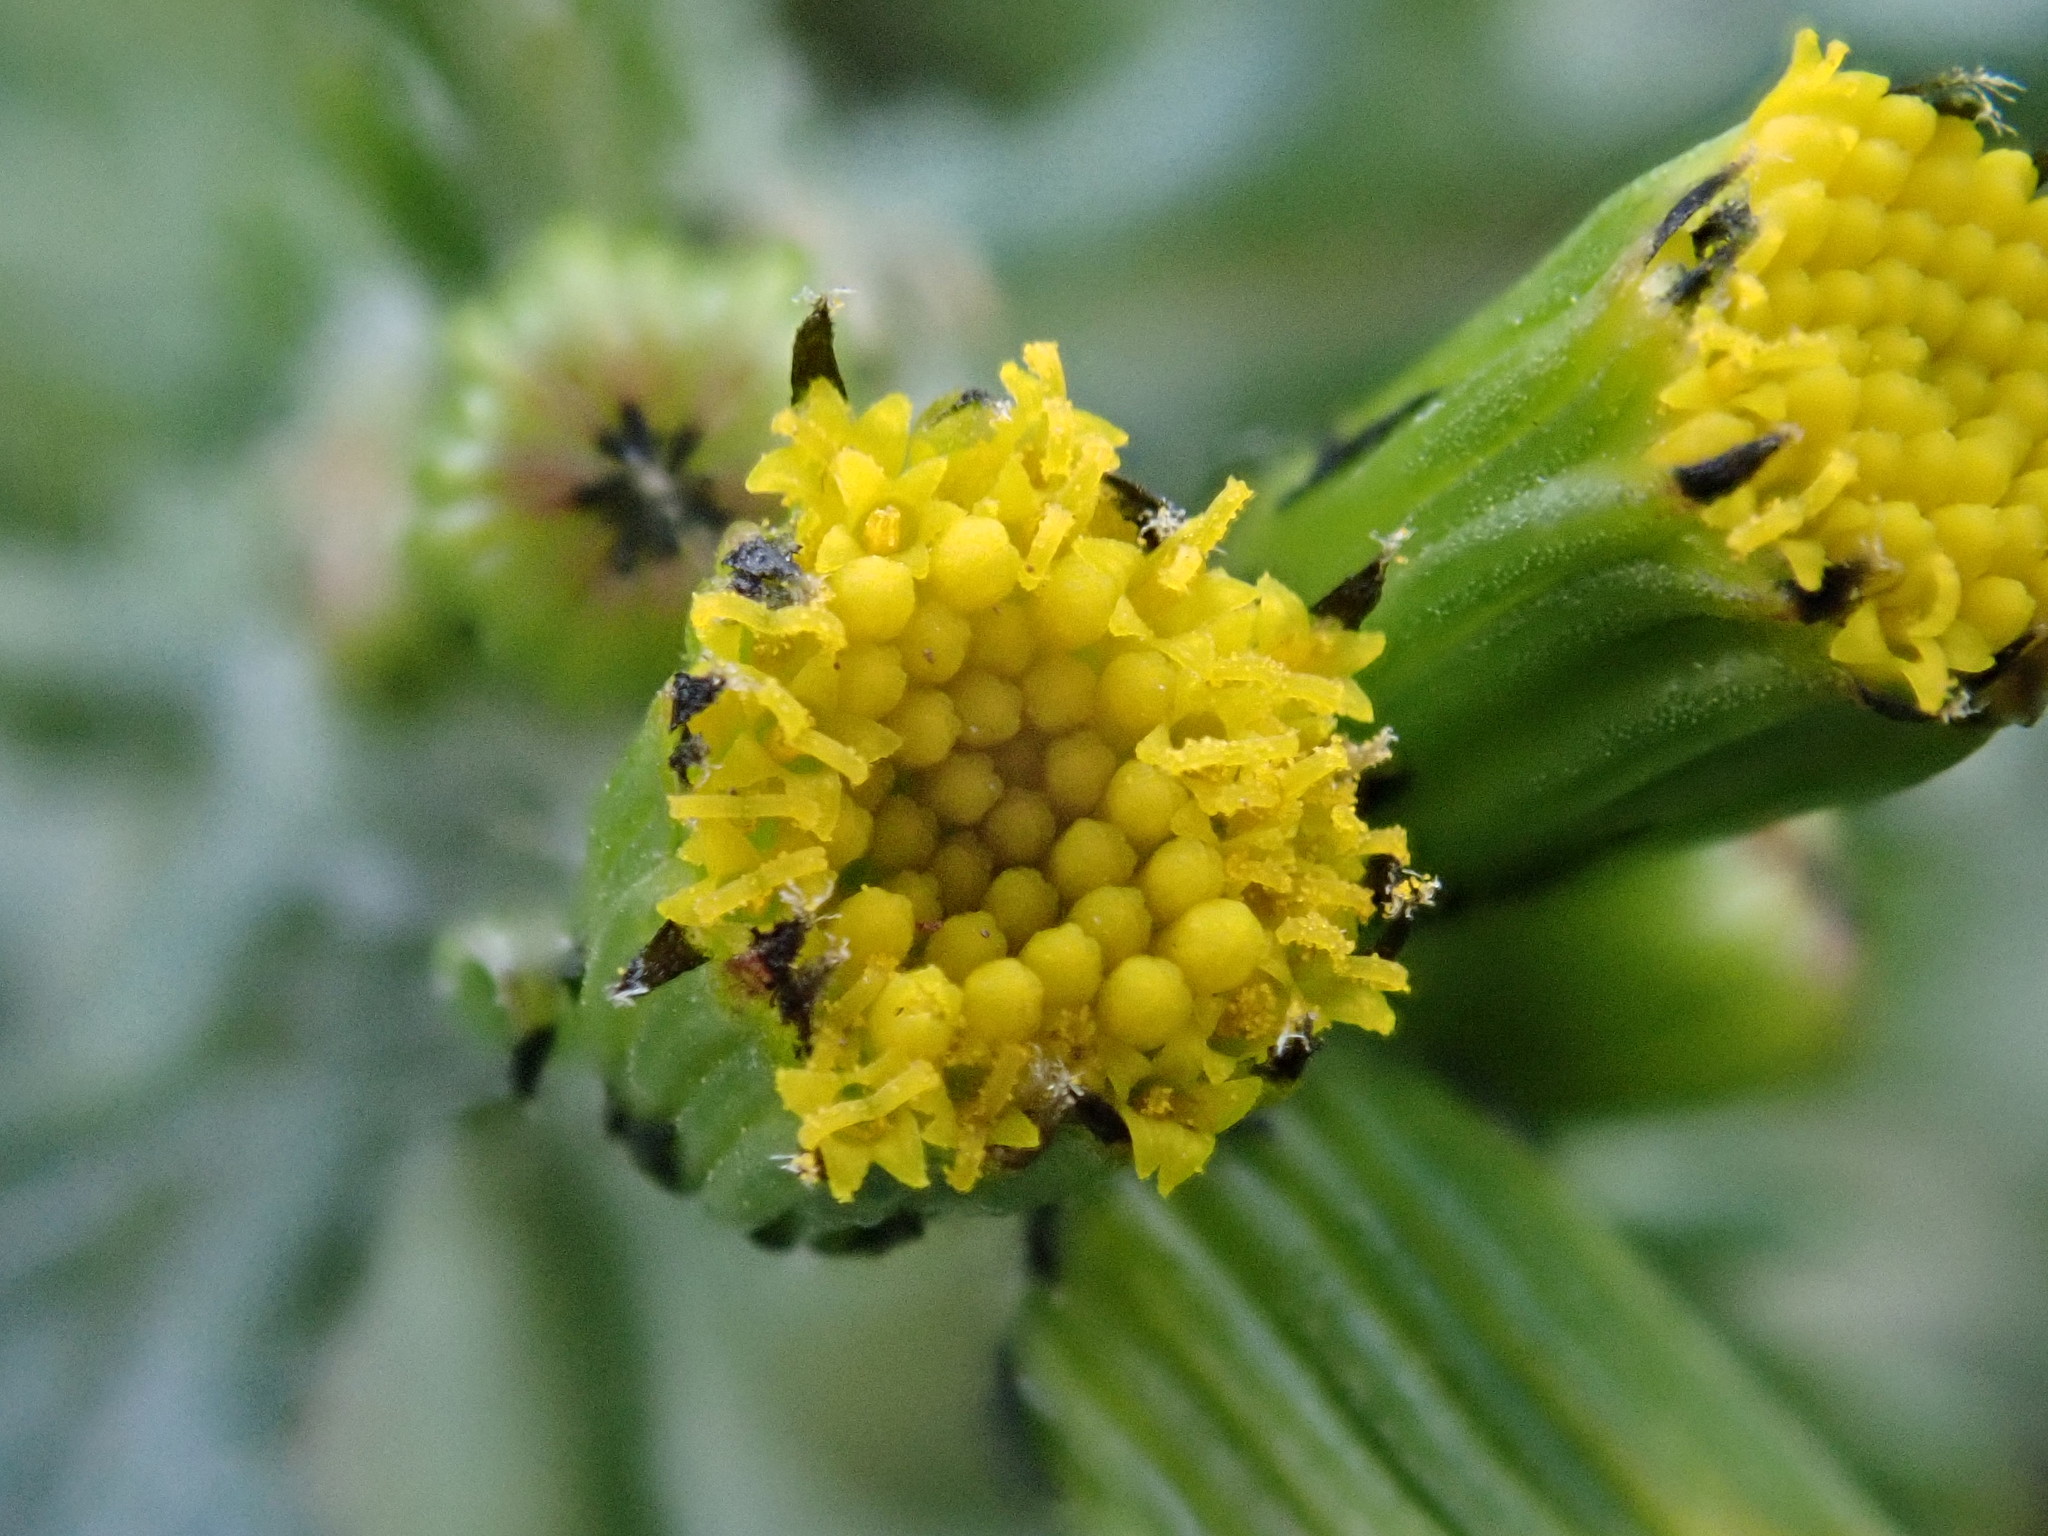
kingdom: Plantae
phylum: Tracheophyta
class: Magnoliopsida
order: Asterales
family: Asteraceae
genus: Senecio
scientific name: Senecio vulgaris
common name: Old-man-in-the-spring
